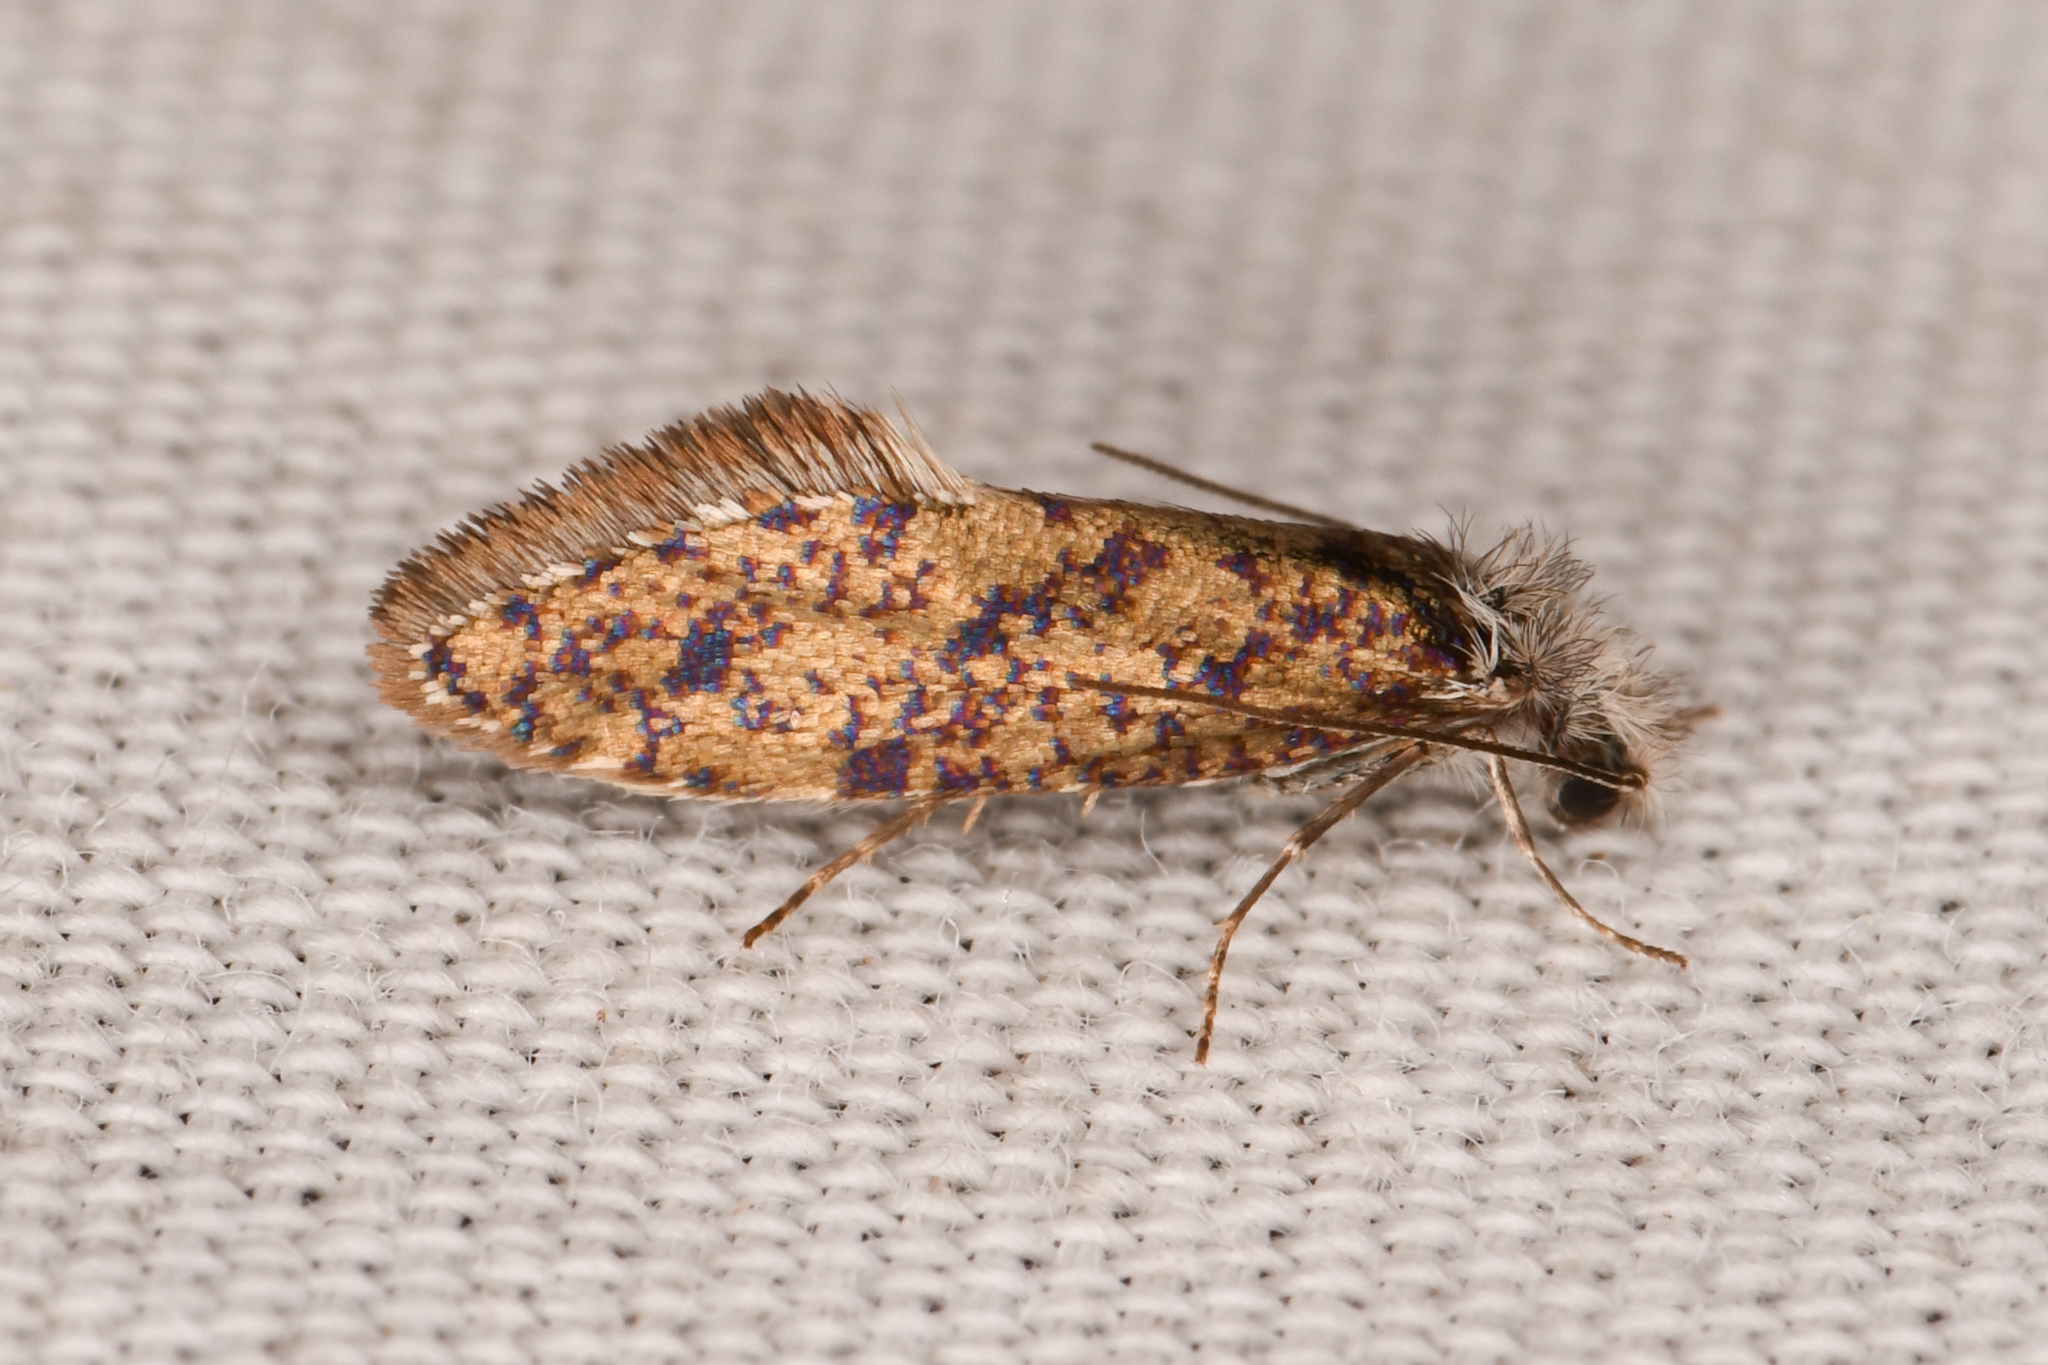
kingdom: Animalia
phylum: Arthropoda
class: Insecta
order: Lepidoptera
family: Eriocraniidae
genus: Dyseriocrania
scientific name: Dyseriocrania auricyanea
